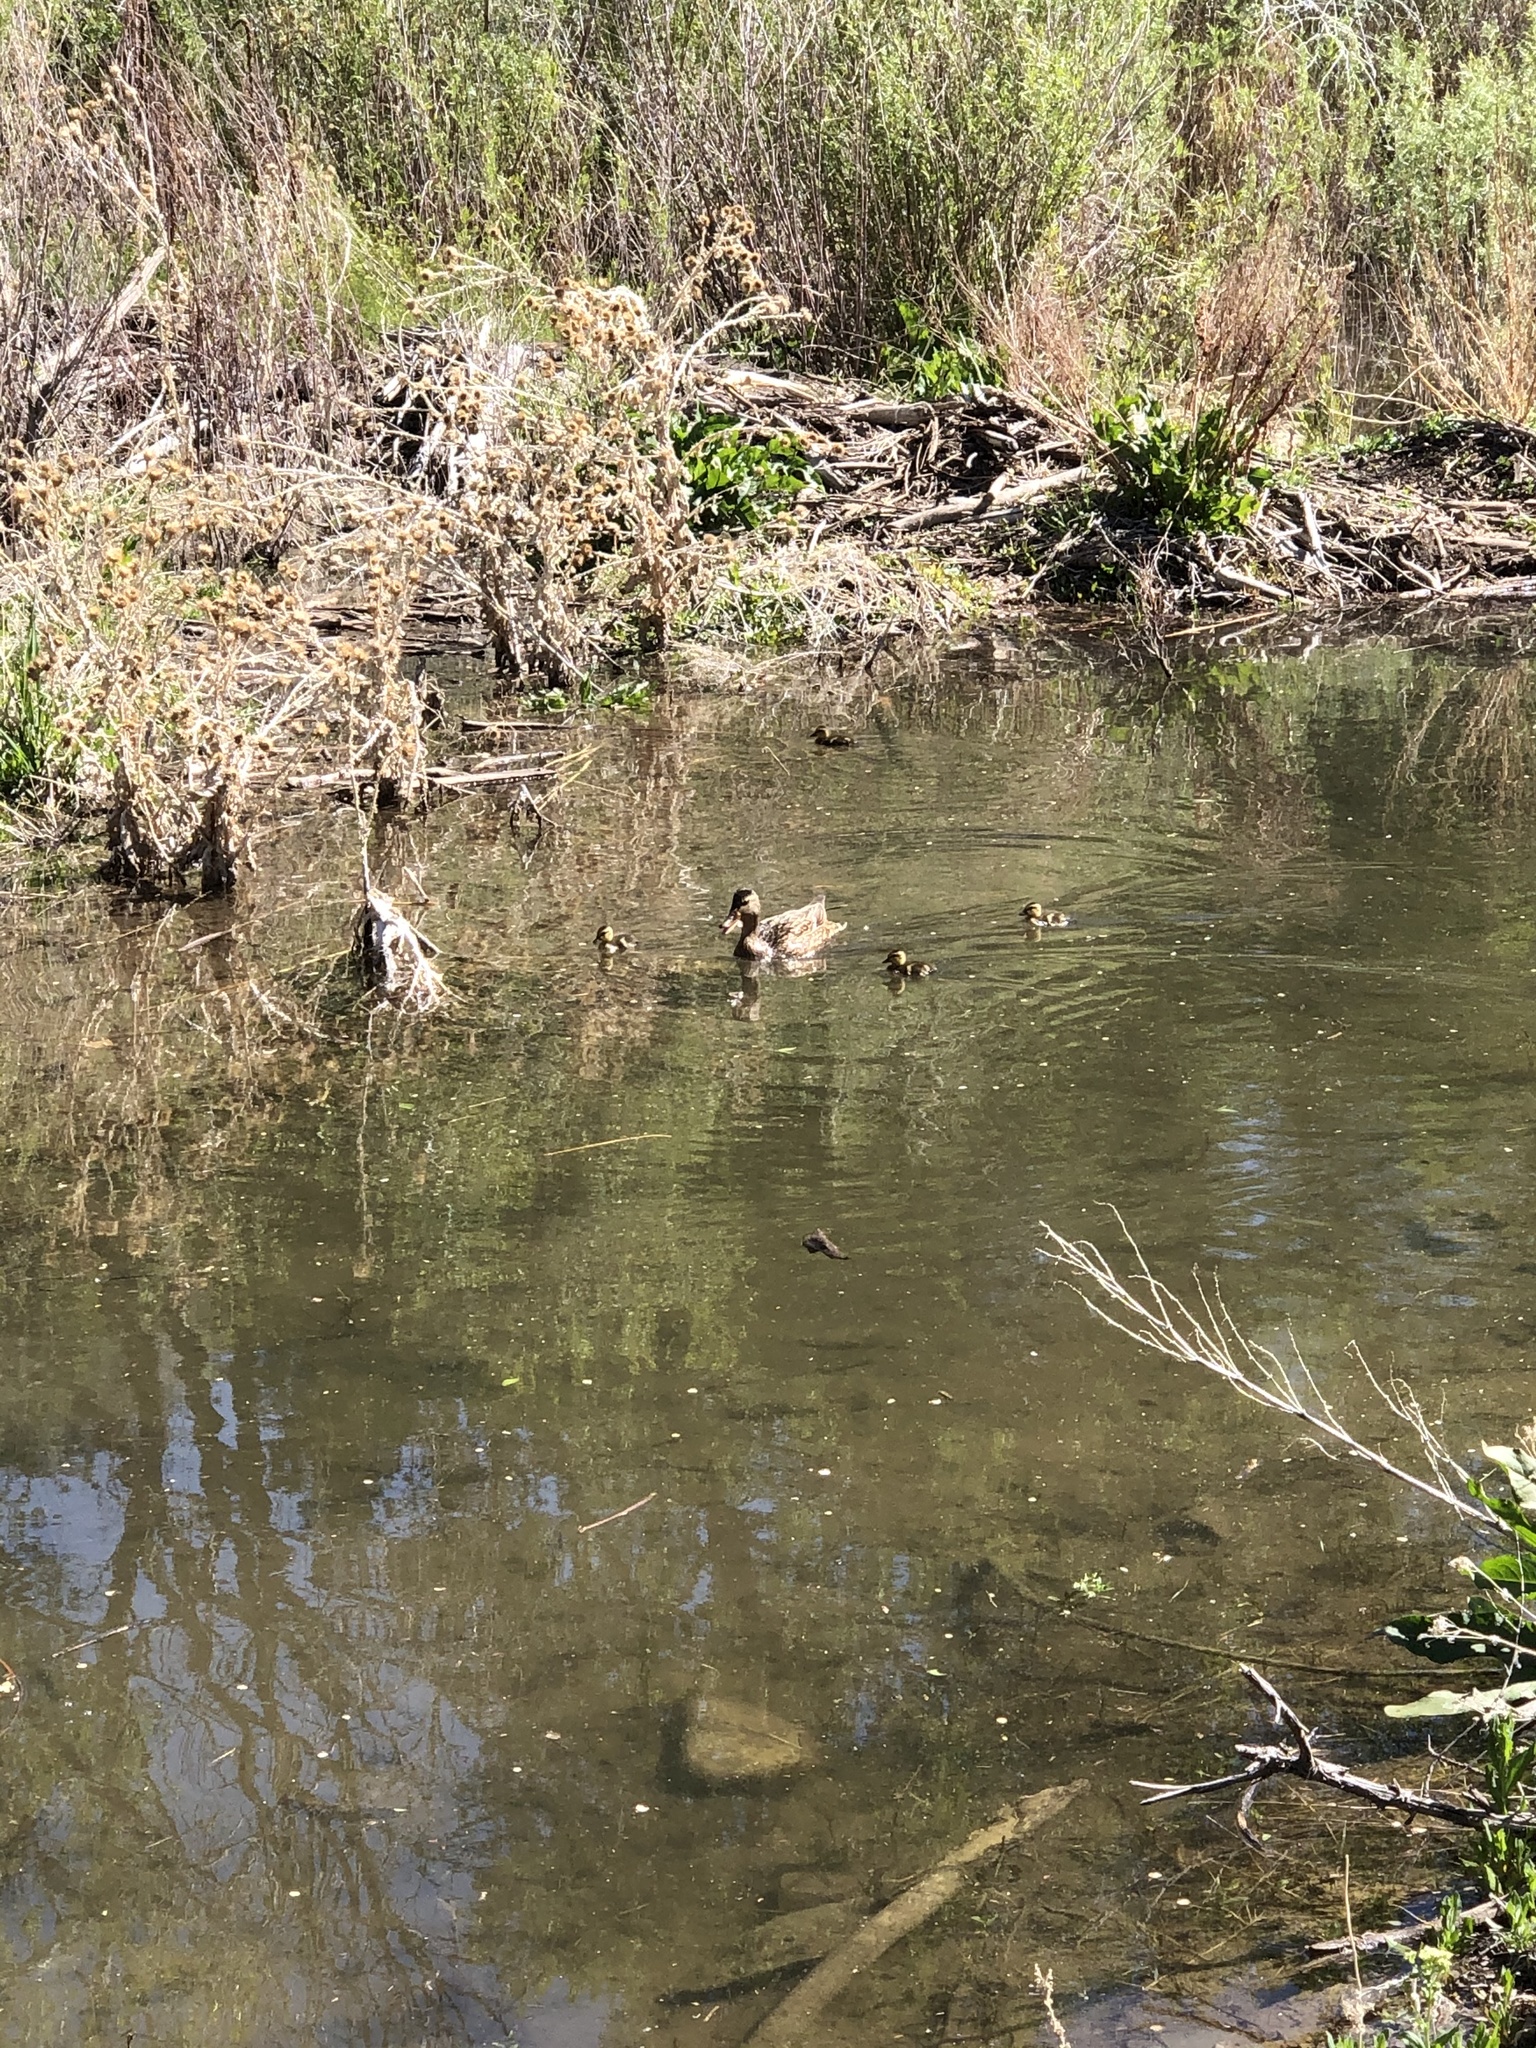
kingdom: Animalia
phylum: Chordata
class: Aves
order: Anseriformes
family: Anatidae
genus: Anas
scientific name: Anas platyrhynchos
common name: Mallard
